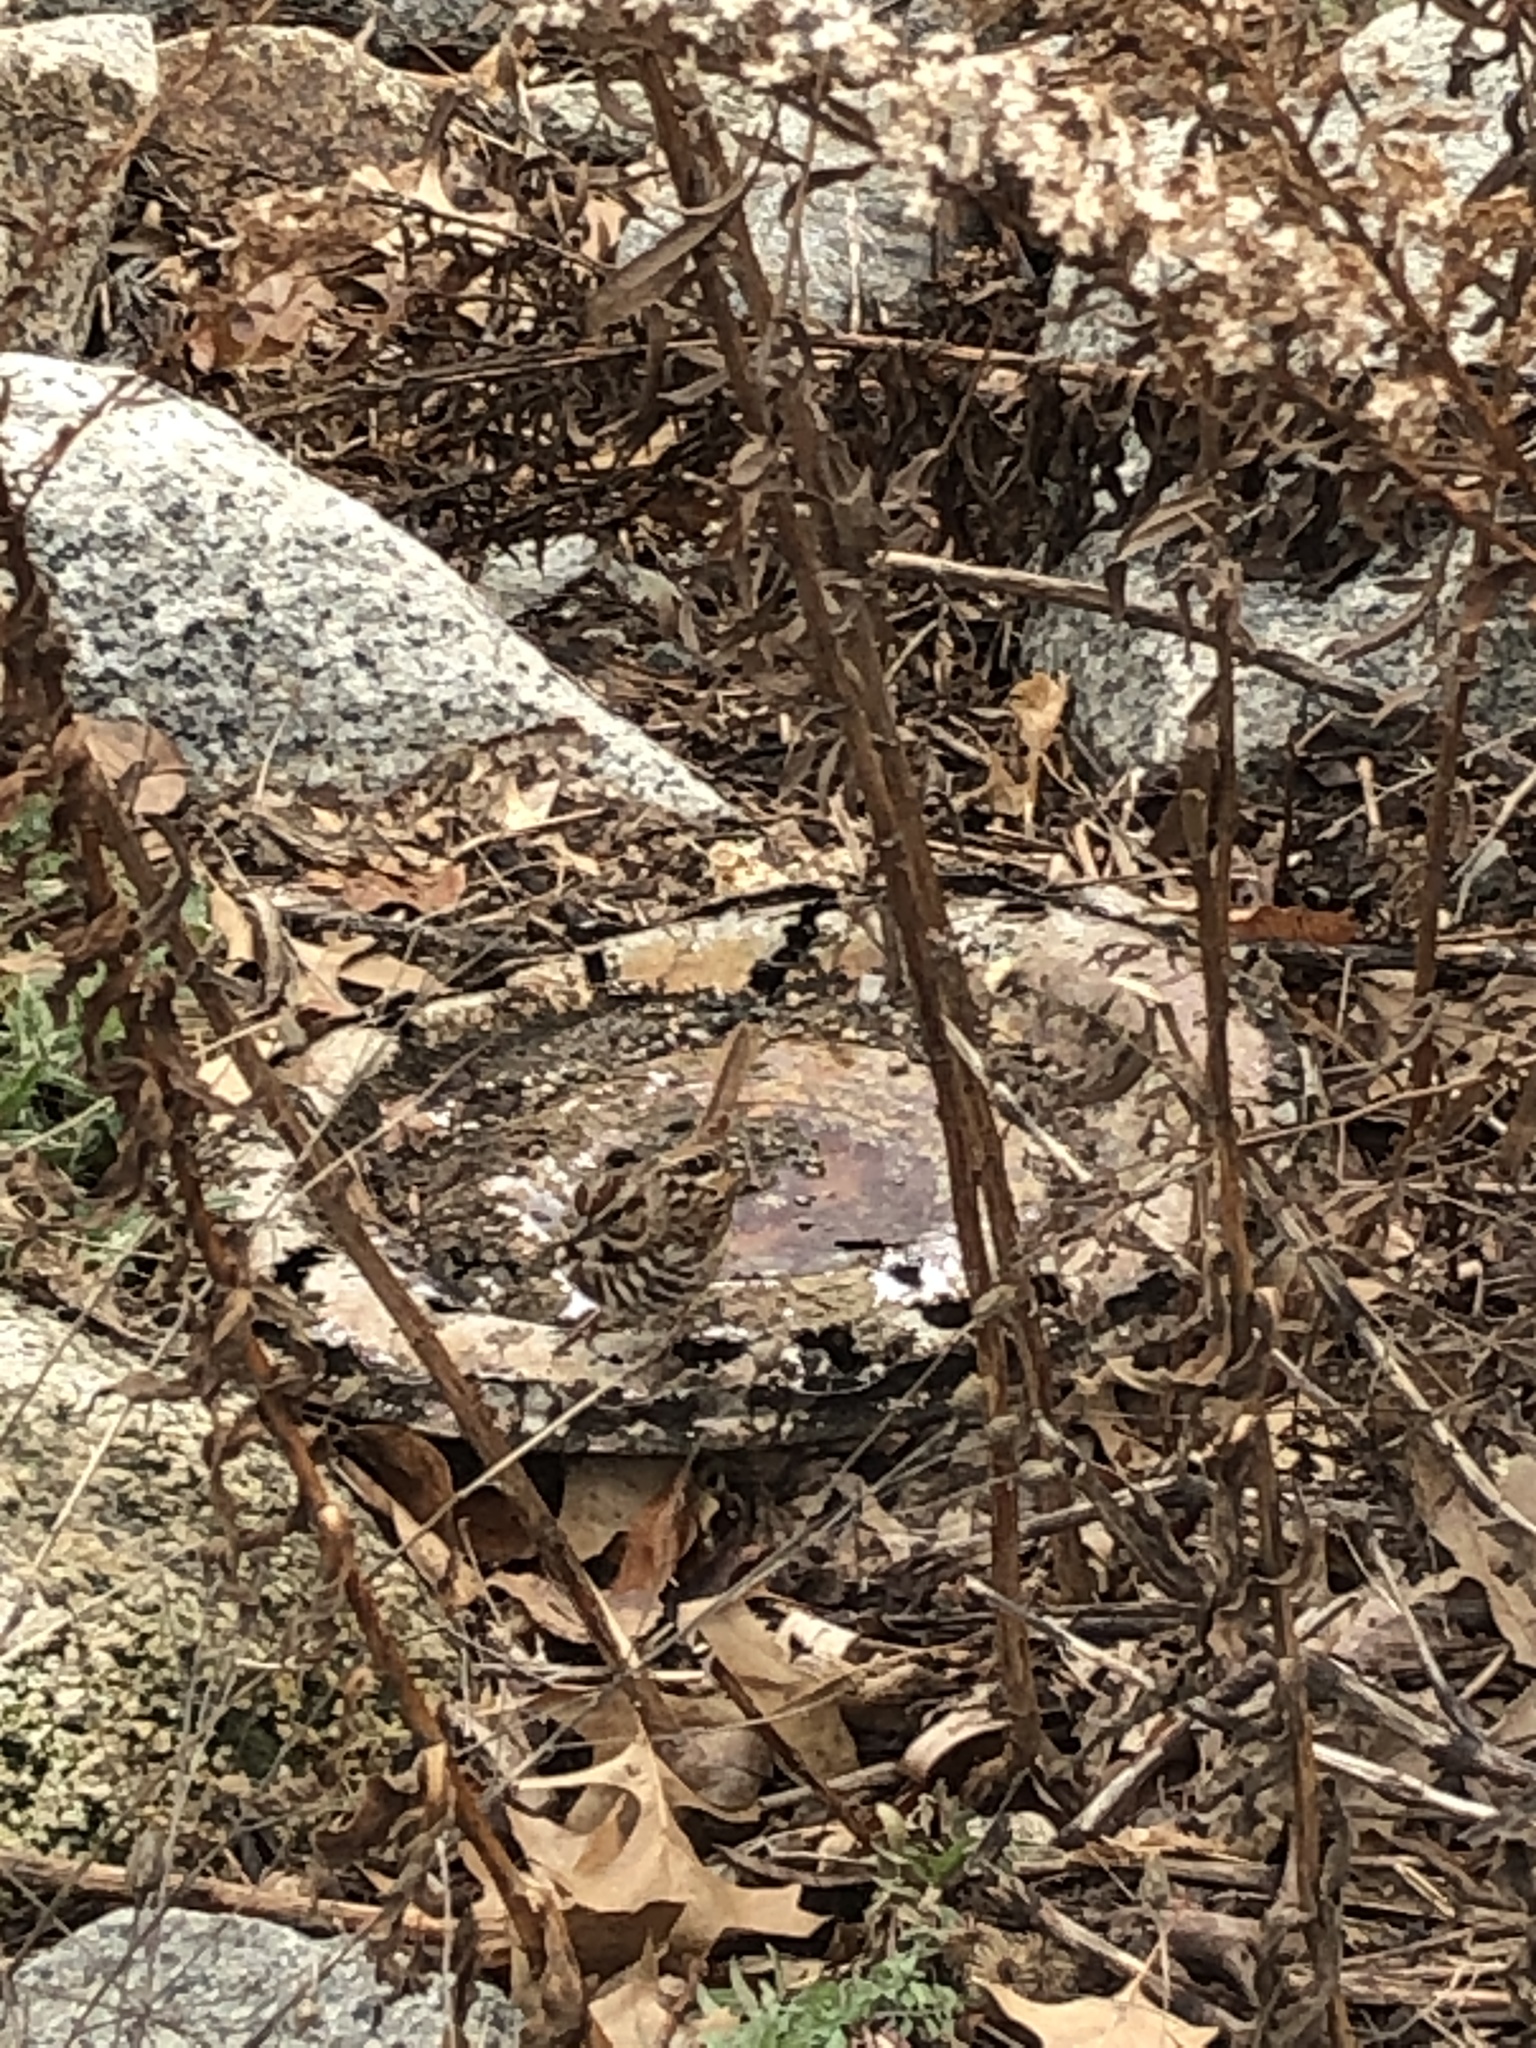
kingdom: Animalia
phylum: Chordata
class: Aves
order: Passeriformes
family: Passerellidae
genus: Melospiza
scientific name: Melospiza melodia
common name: Song sparrow
